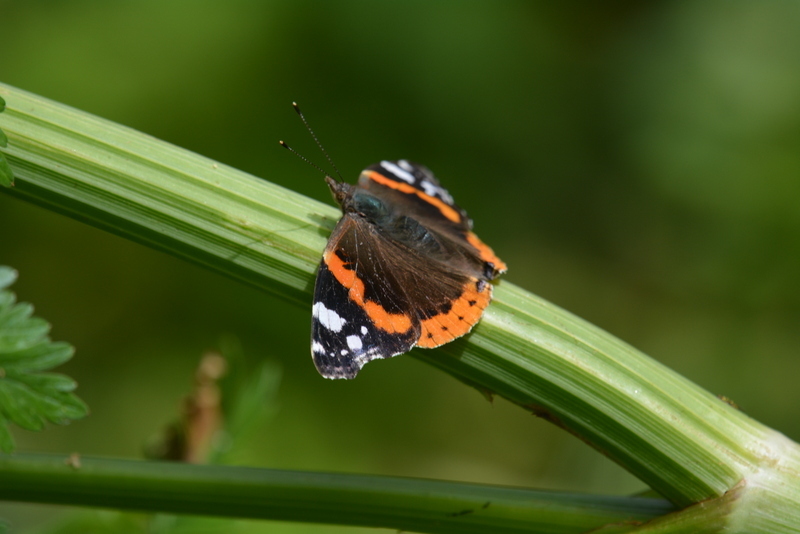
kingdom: Animalia
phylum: Arthropoda
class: Insecta
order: Lepidoptera
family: Nymphalidae
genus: Vanessa
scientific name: Vanessa atalanta
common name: Red admiral
